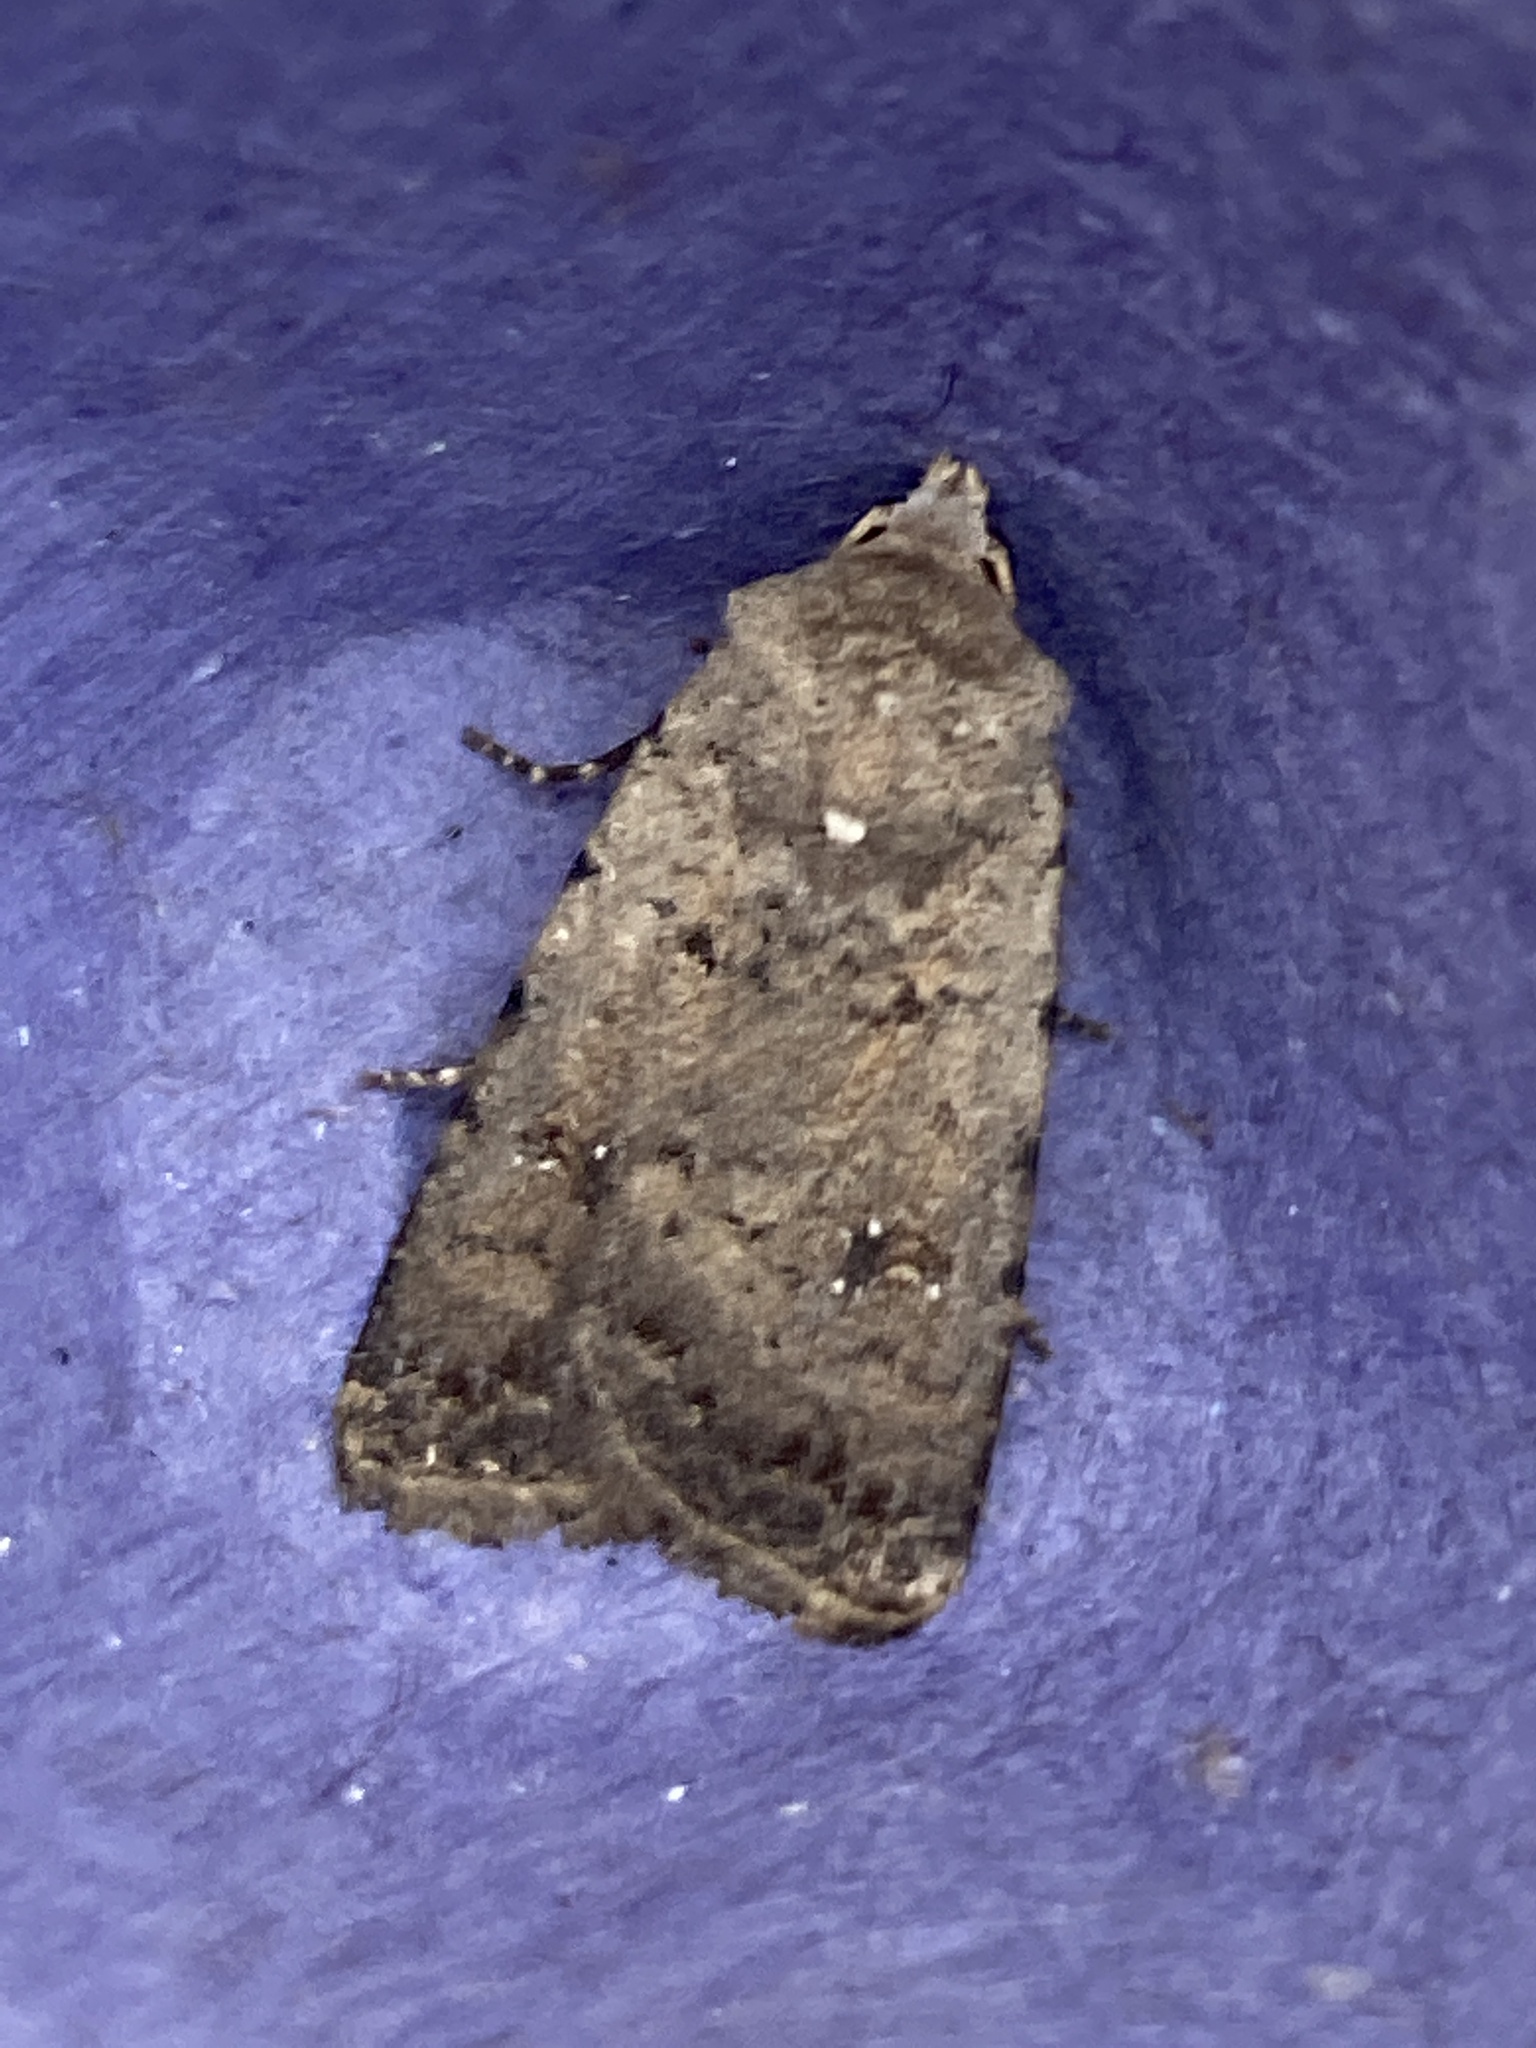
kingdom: Animalia
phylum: Arthropoda
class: Insecta
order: Lepidoptera
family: Noctuidae
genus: Caradrina
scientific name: Caradrina clavipalpis
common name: Pale mottled willow
